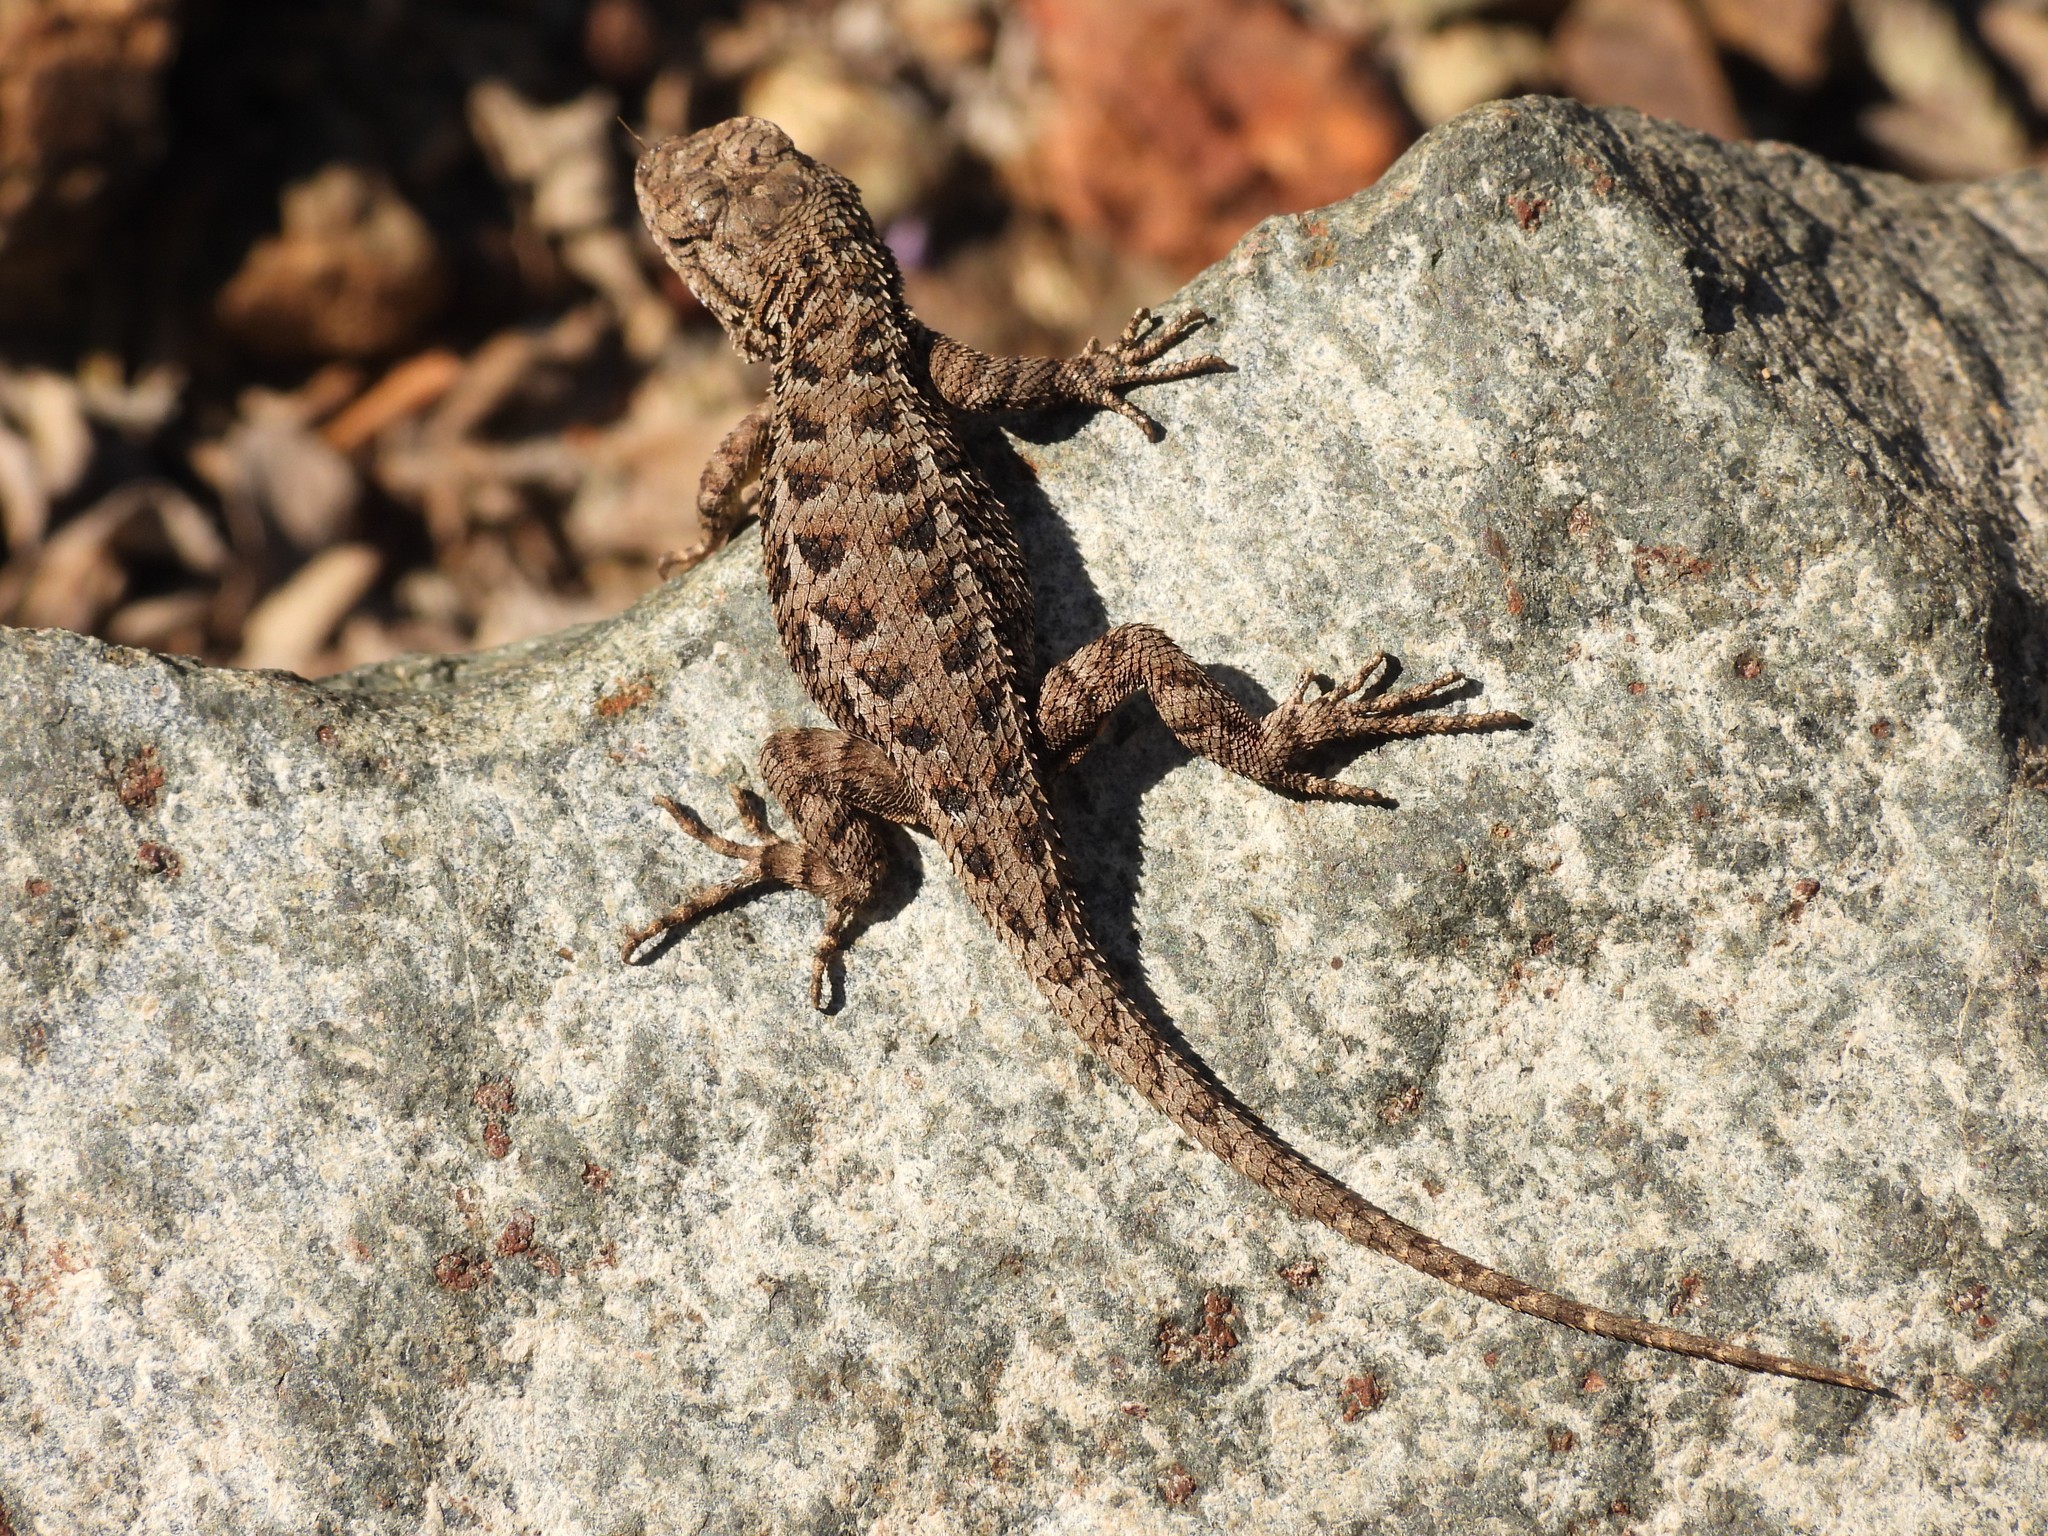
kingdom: Animalia
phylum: Chordata
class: Squamata
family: Phrynosomatidae
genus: Sceloporus
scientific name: Sceloporus occidentalis
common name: Western fence lizard
